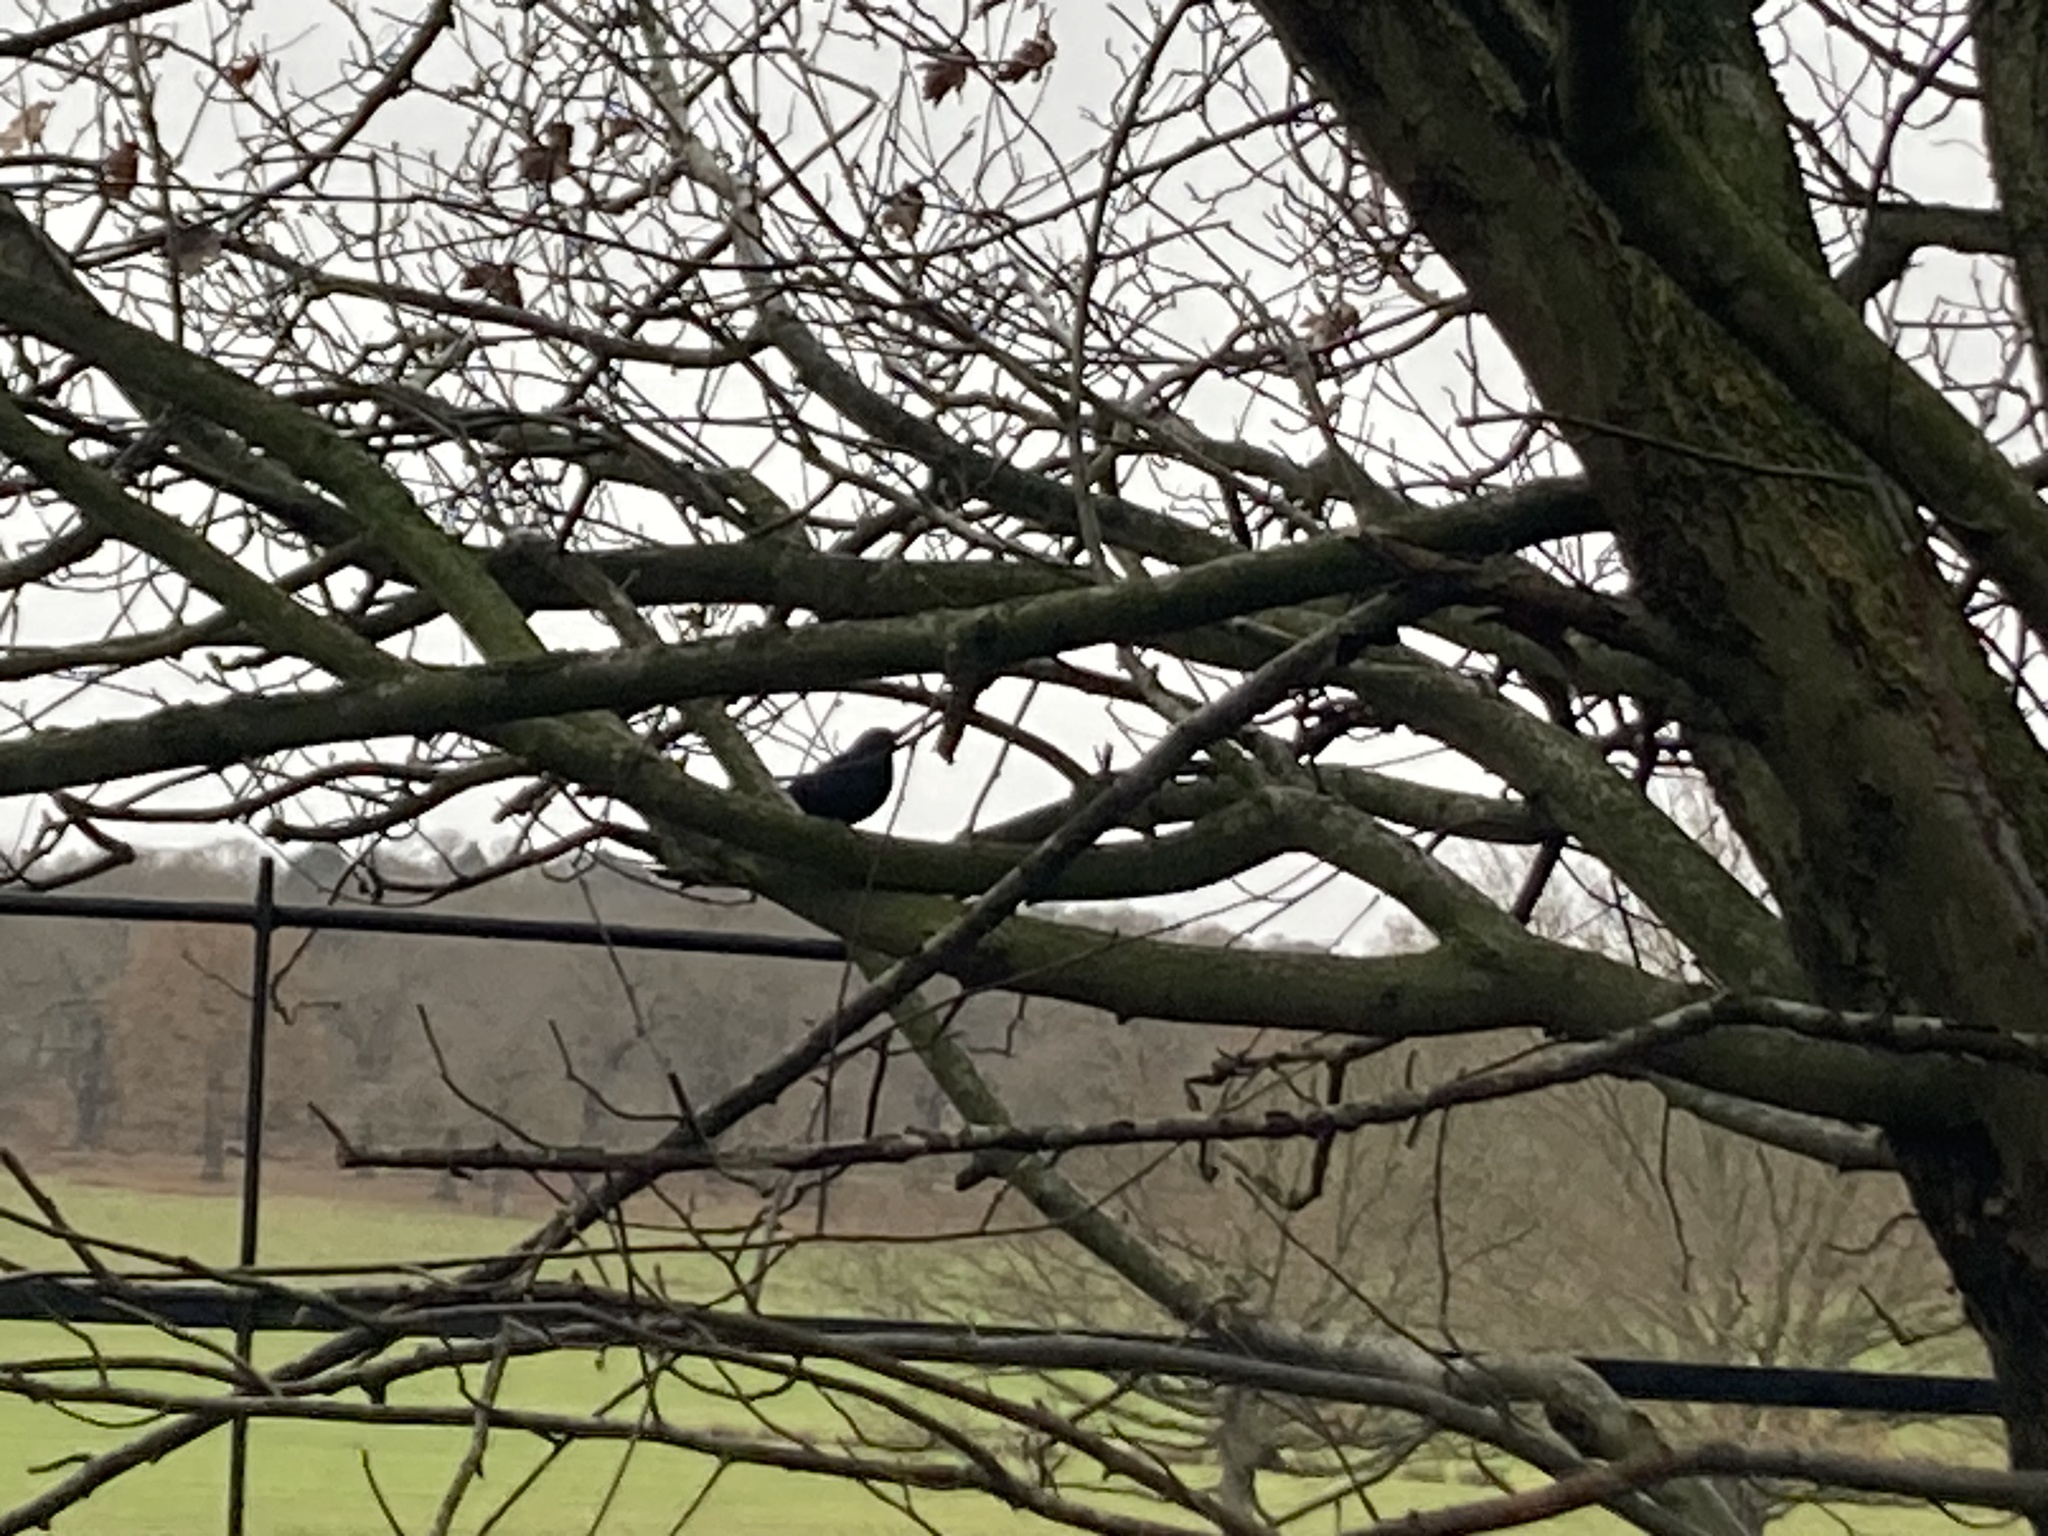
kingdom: Animalia
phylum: Chordata
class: Aves
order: Passeriformes
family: Turdidae
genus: Turdus
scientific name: Turdus merula
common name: Common blackbird
